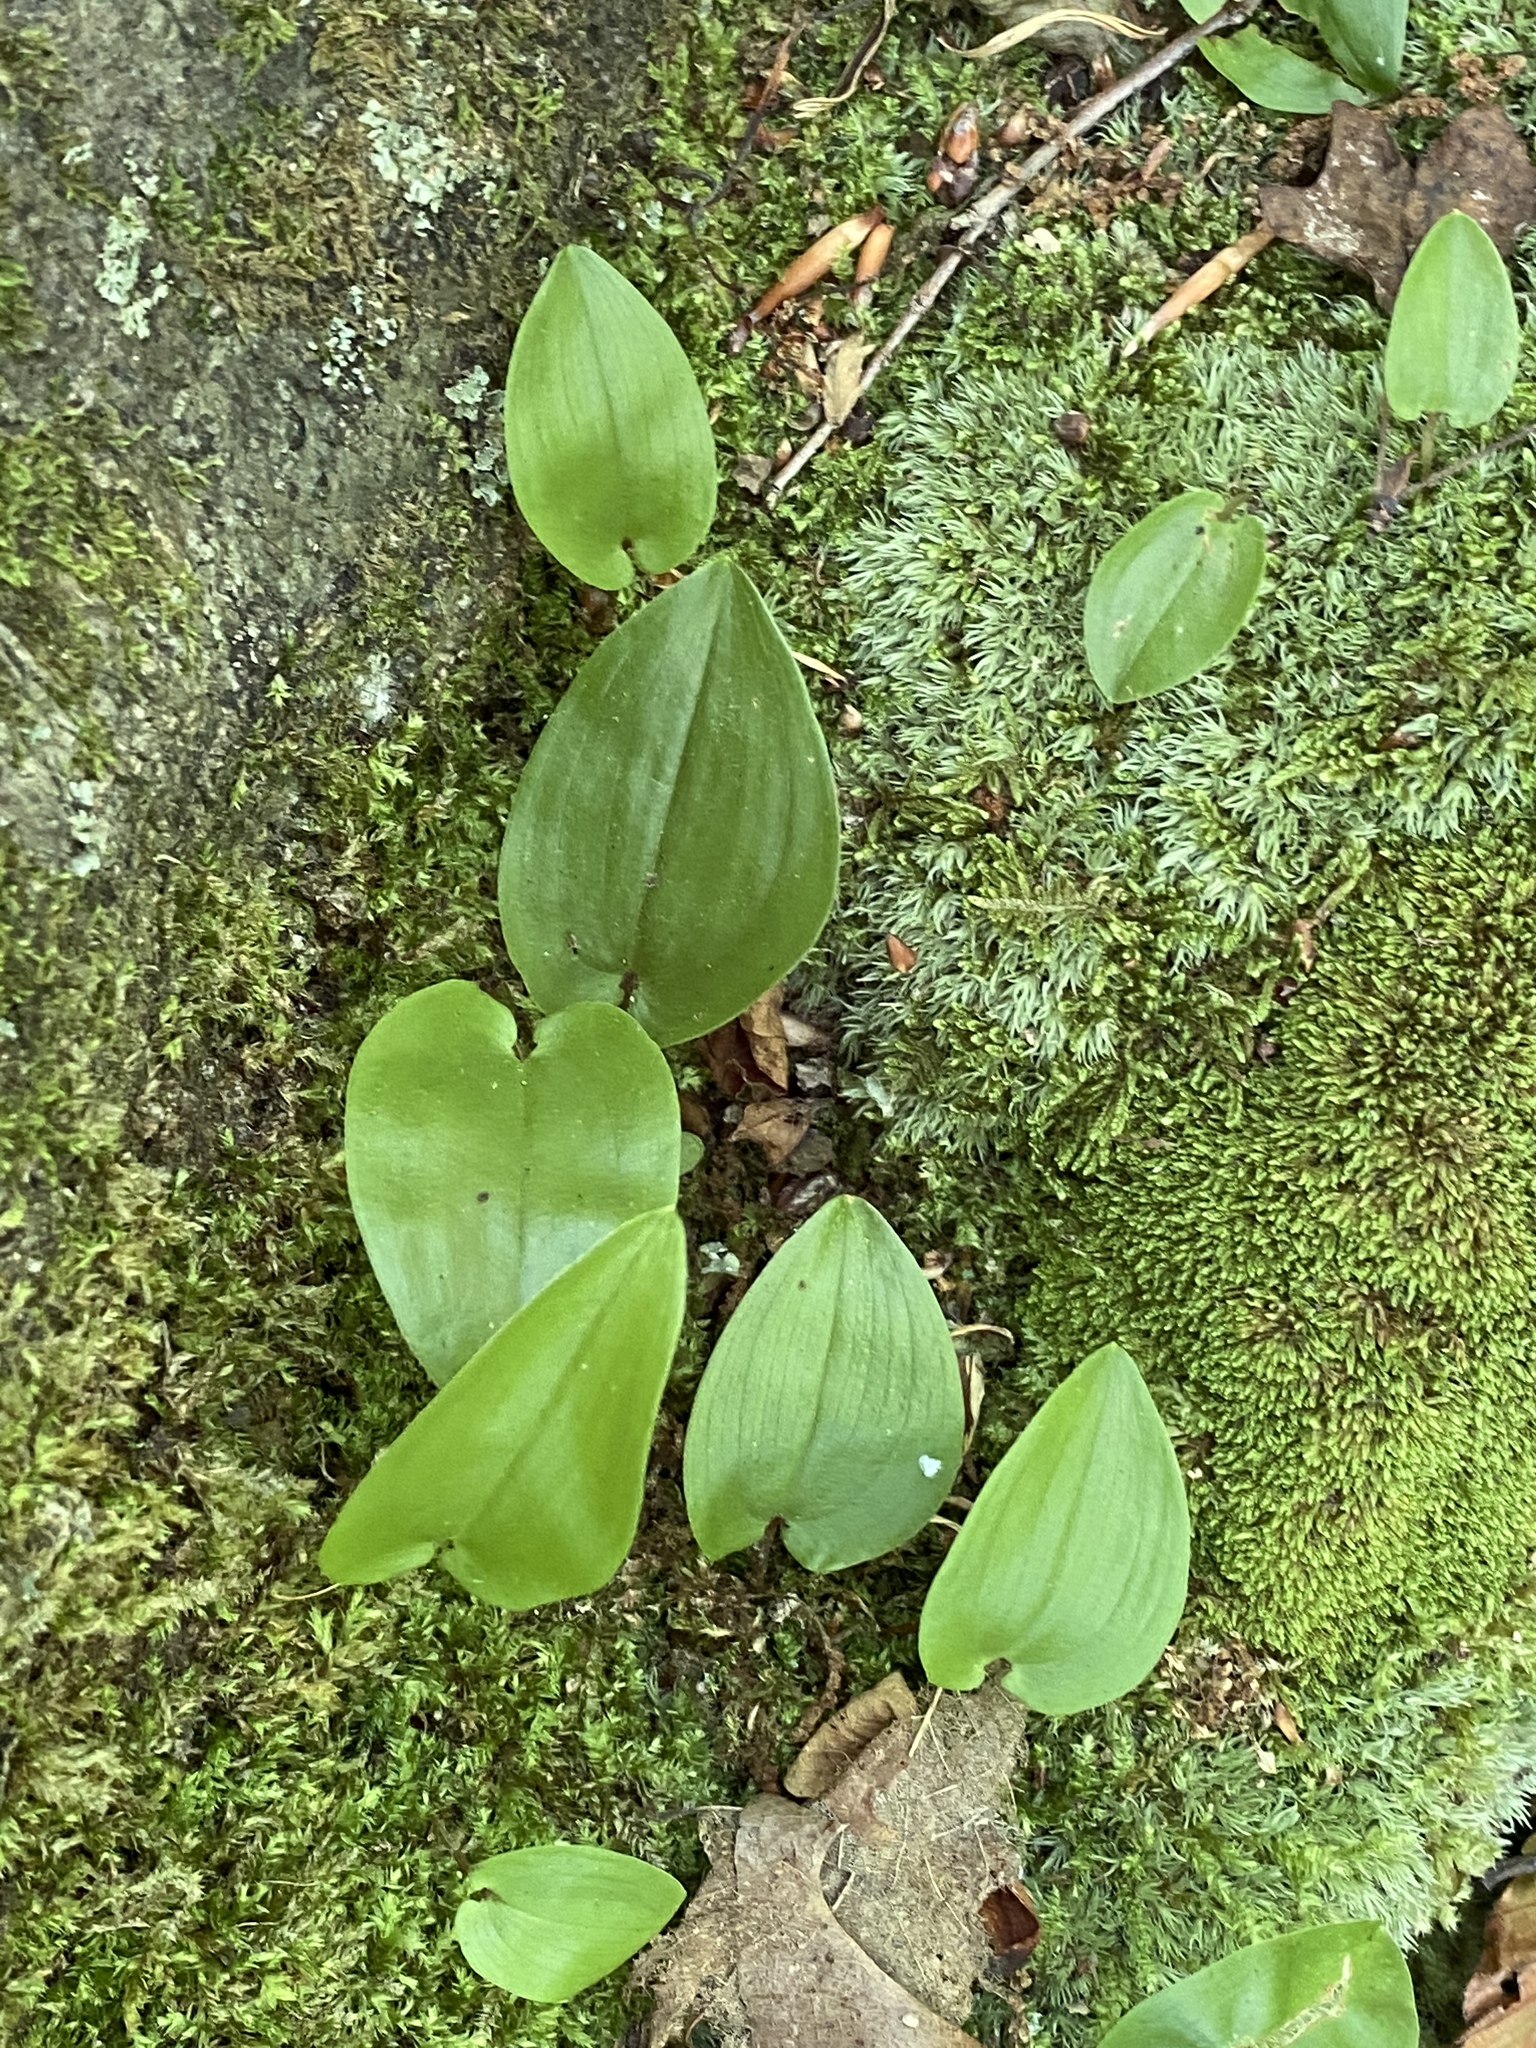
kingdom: Plantae
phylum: Tracheophyta
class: Liliopsida
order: Asparagales
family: Asparagaceae
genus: Maianthemum
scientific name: Maianthemum canadense
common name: False lily-of-the-valley
